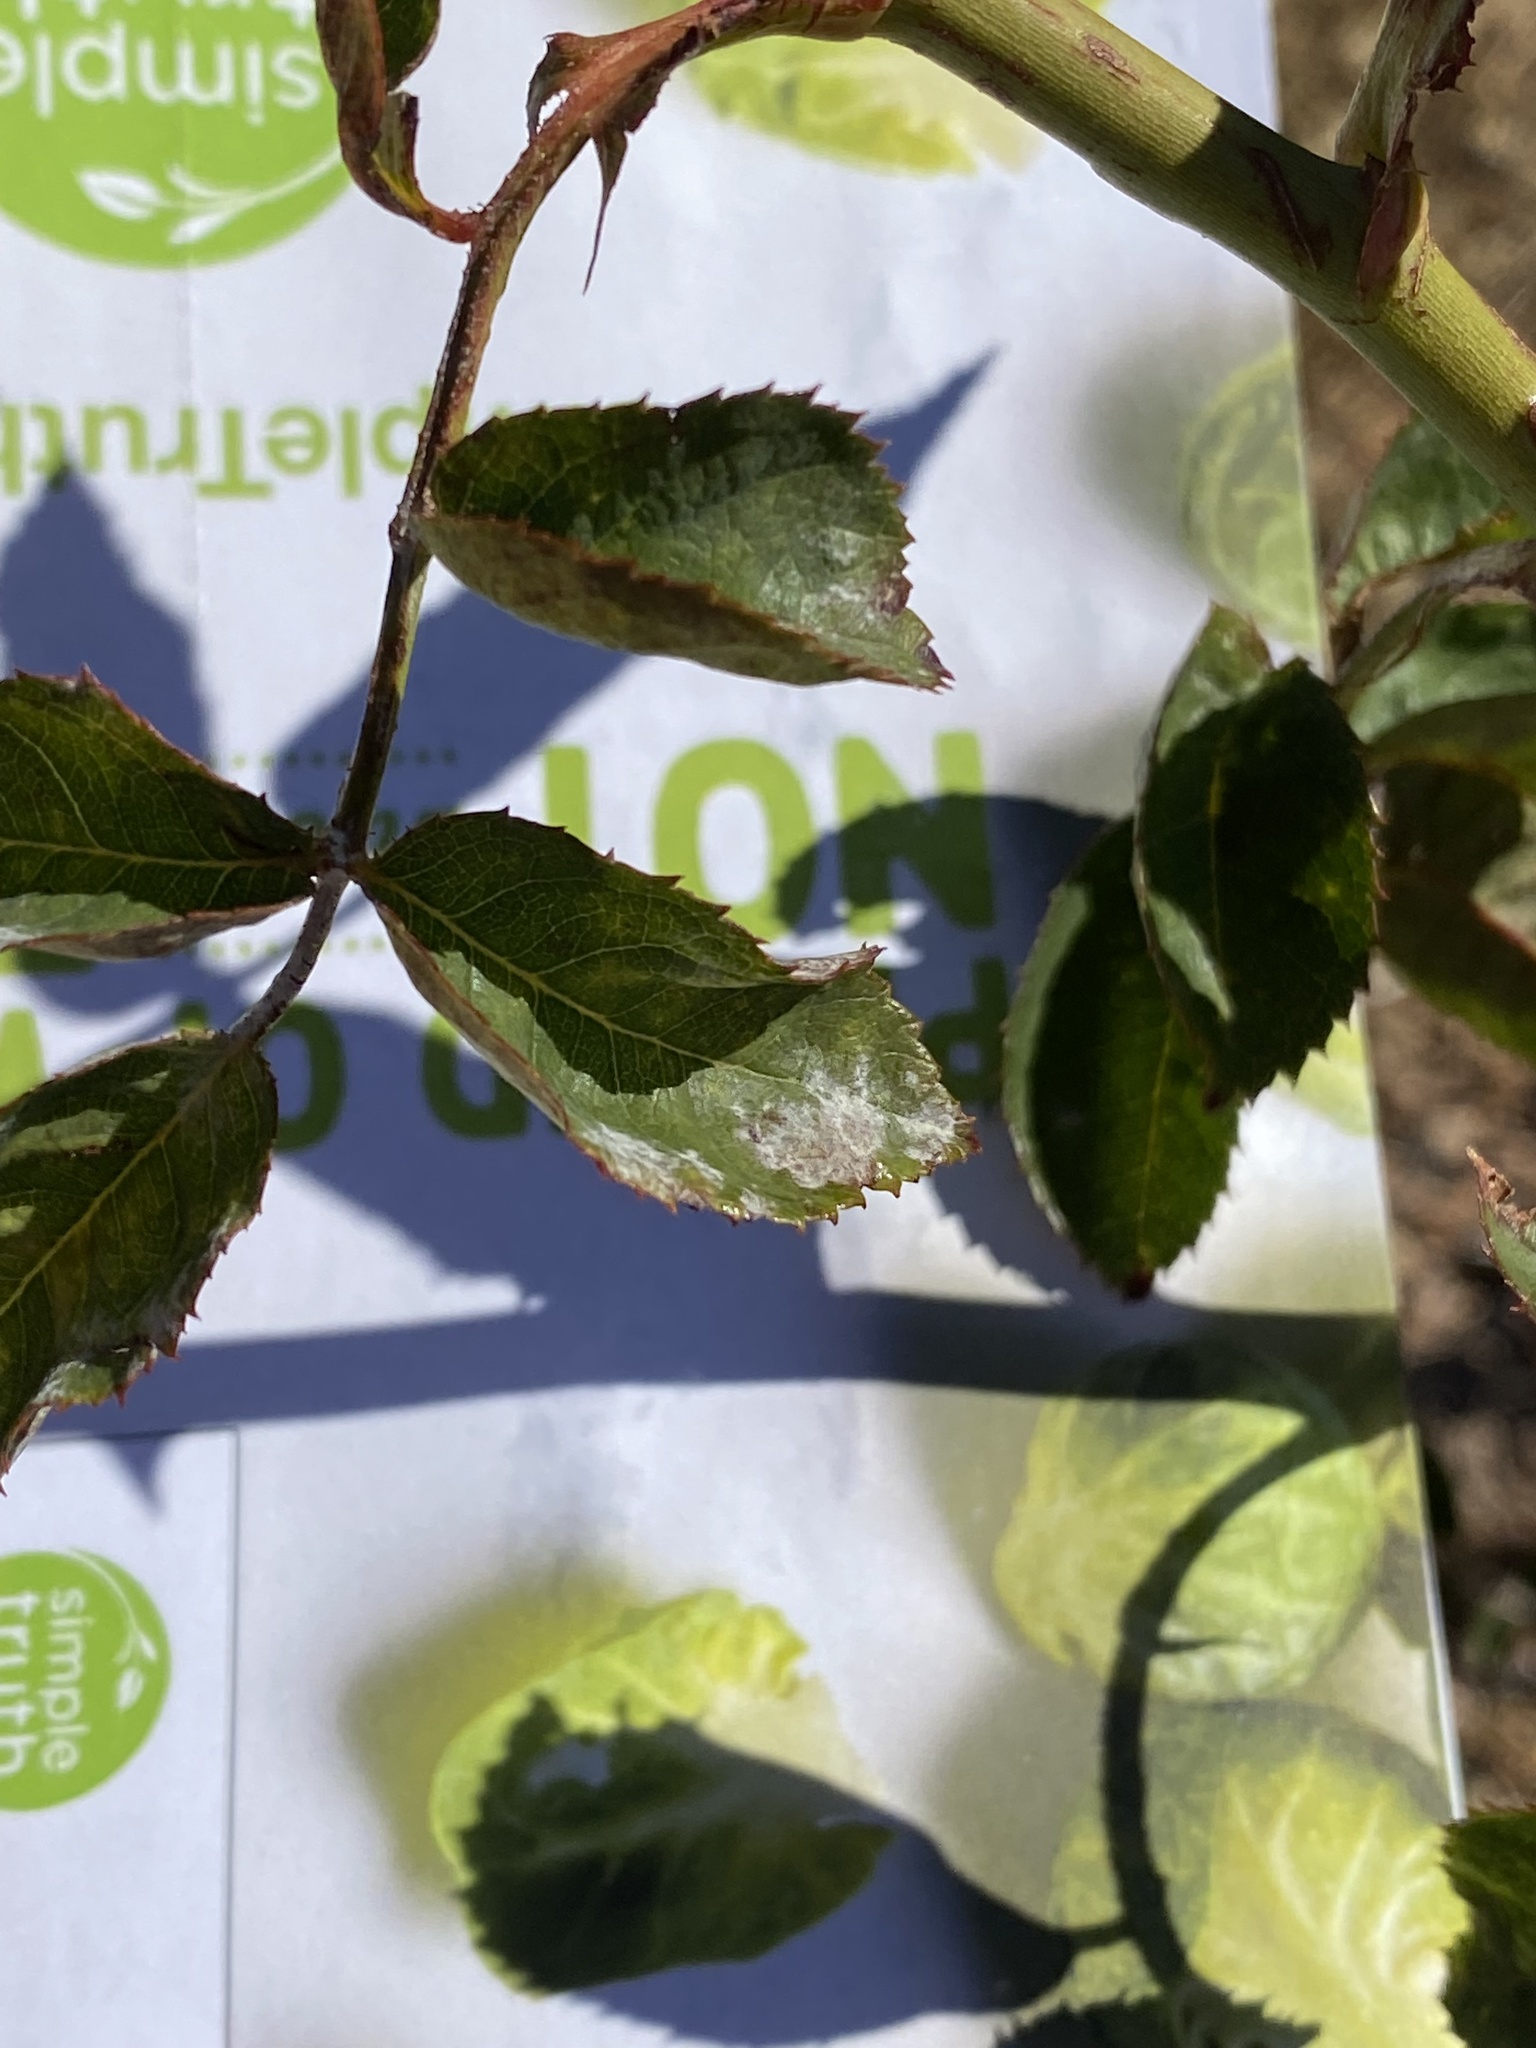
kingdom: Fungi
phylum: Ascomycota
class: Leotiomycetes
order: Helotiales
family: Erysiphaceae
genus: Podosphaera
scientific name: Podosphaera pannosa
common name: Rose mildew
